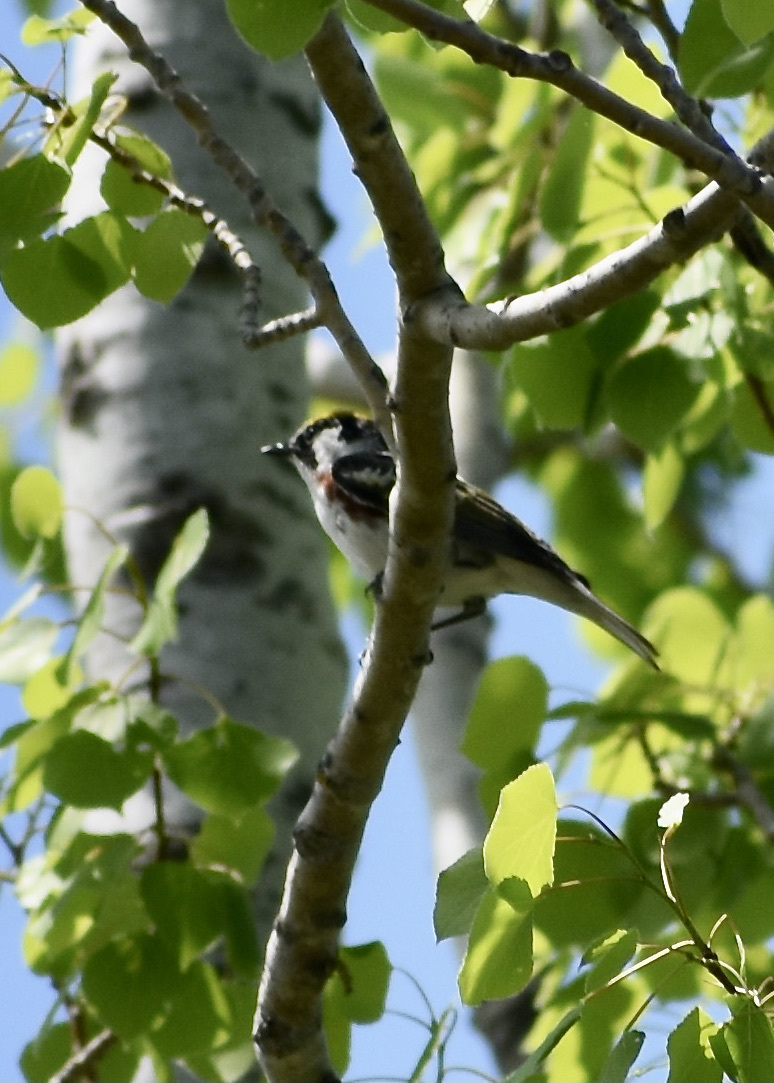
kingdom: Animalia
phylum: Chordata
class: Aves
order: Passeriformes
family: Parulidae
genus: Setophaga
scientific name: Setophaga pensylvanica
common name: Chestnut-sided warbler
